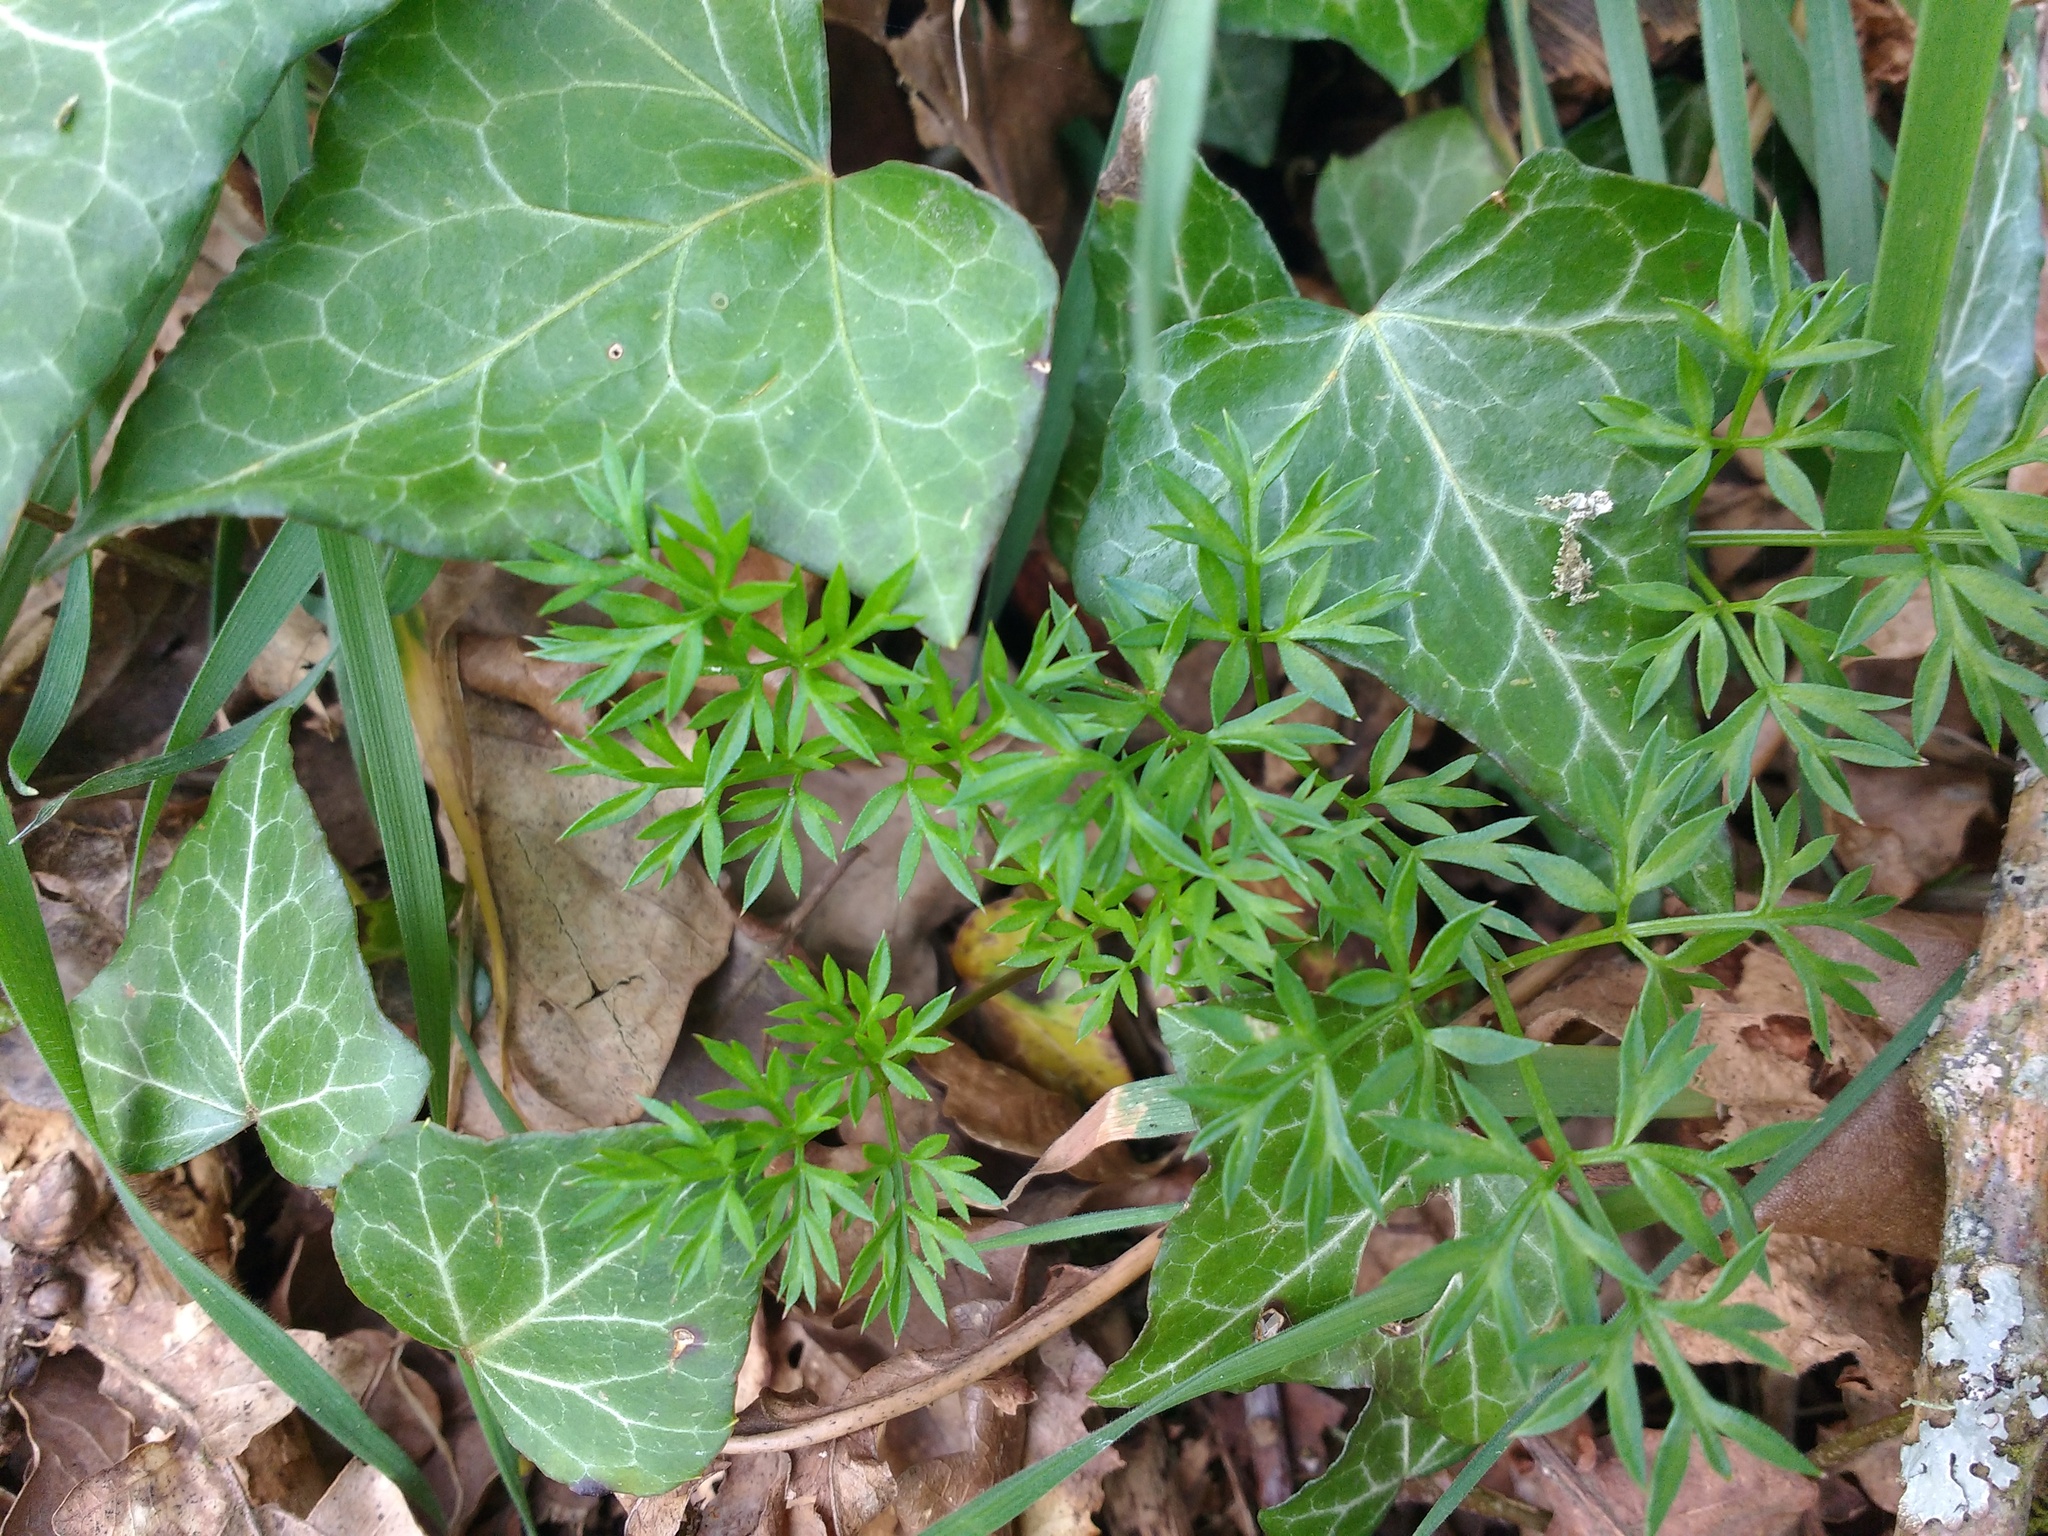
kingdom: Plantae
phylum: Tracheophyta
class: Magnoliopsida
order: Apiales
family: Apiaceae
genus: Conopodium
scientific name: Conopodium majus
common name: Pignut
